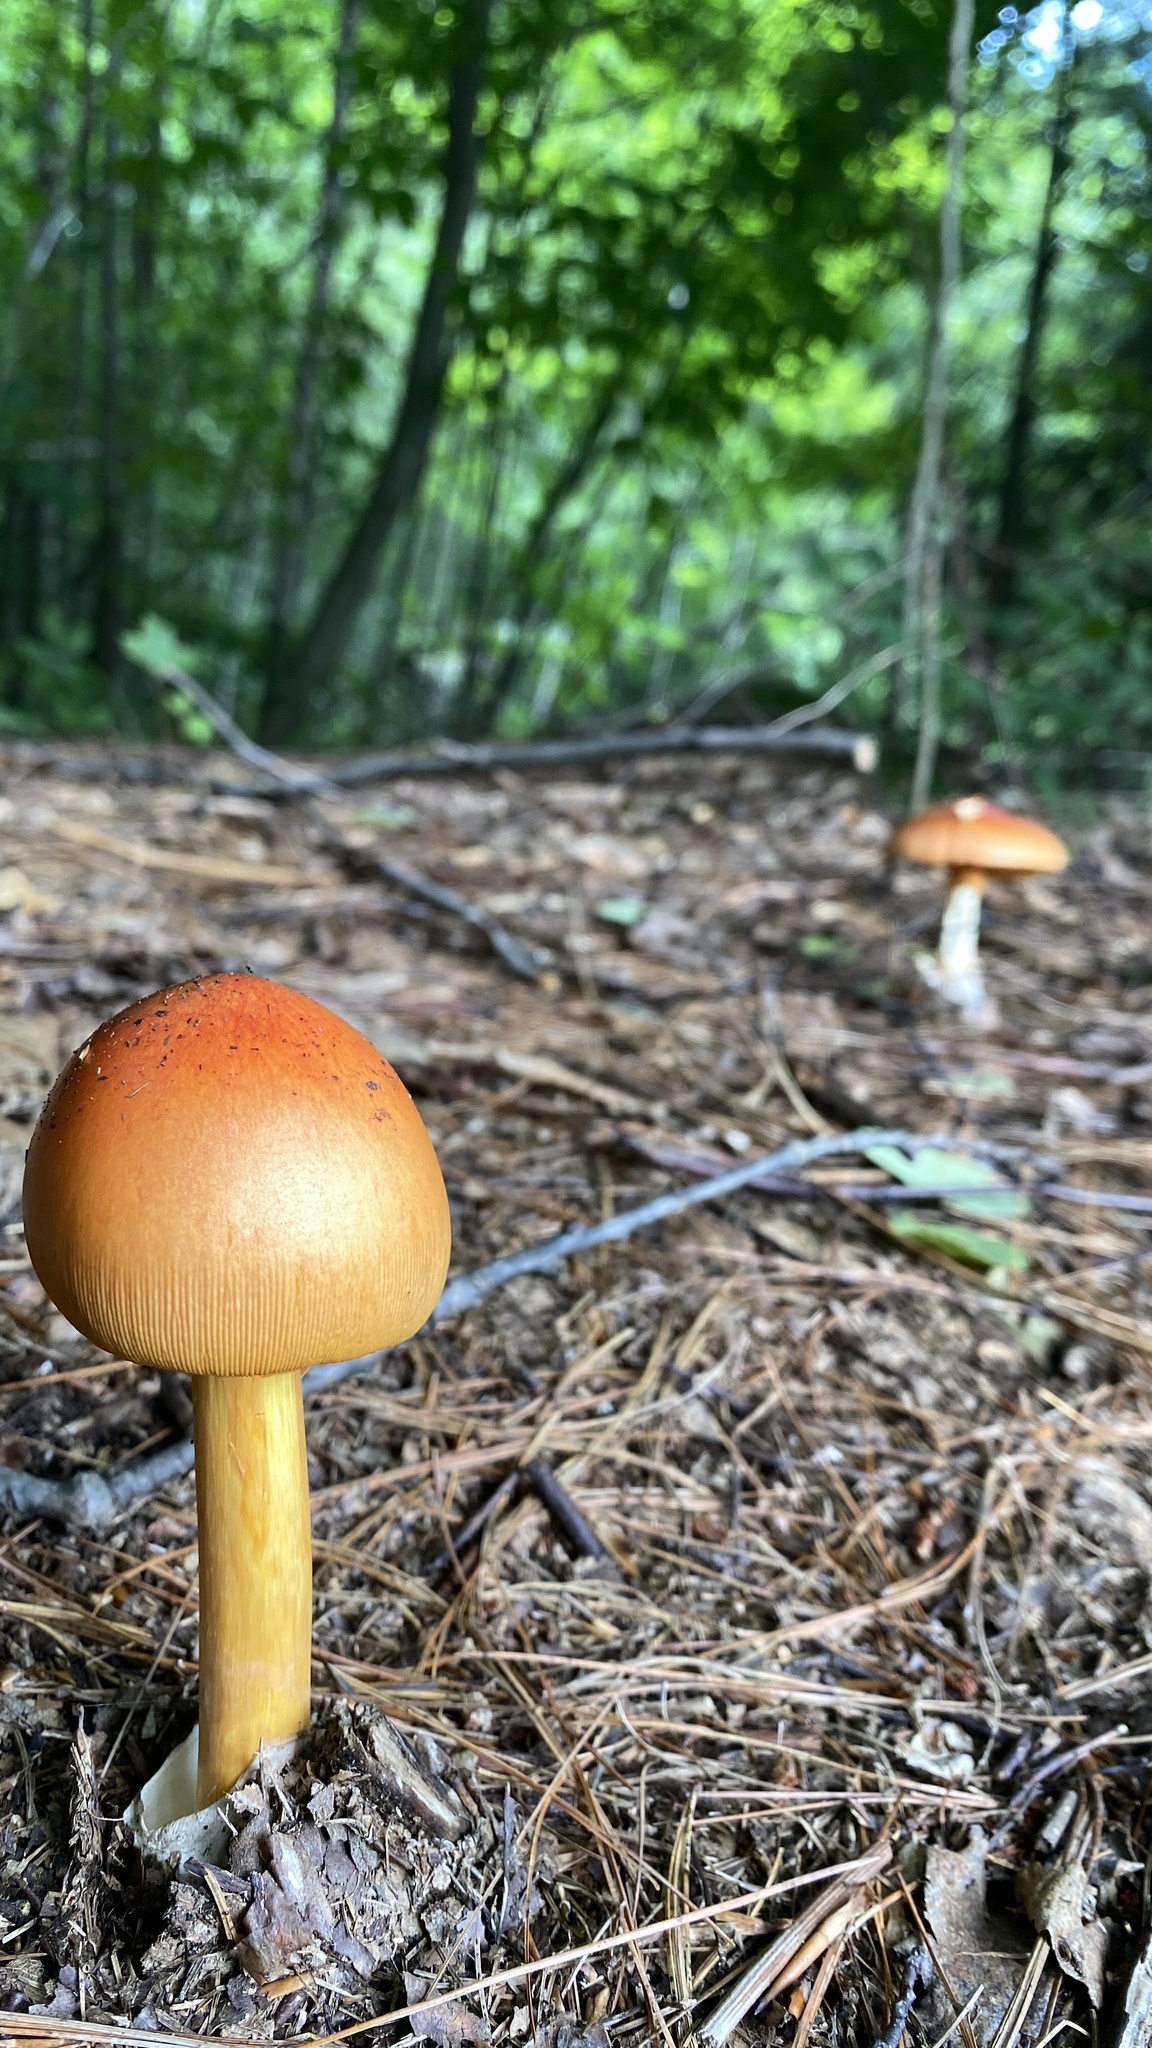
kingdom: Fungi
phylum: Basidiomycota
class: Agaricomycetes
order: Agaricales
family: Amanitaceae
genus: Amanita
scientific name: Amanita jacksonii
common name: Jackson's slender caesar
